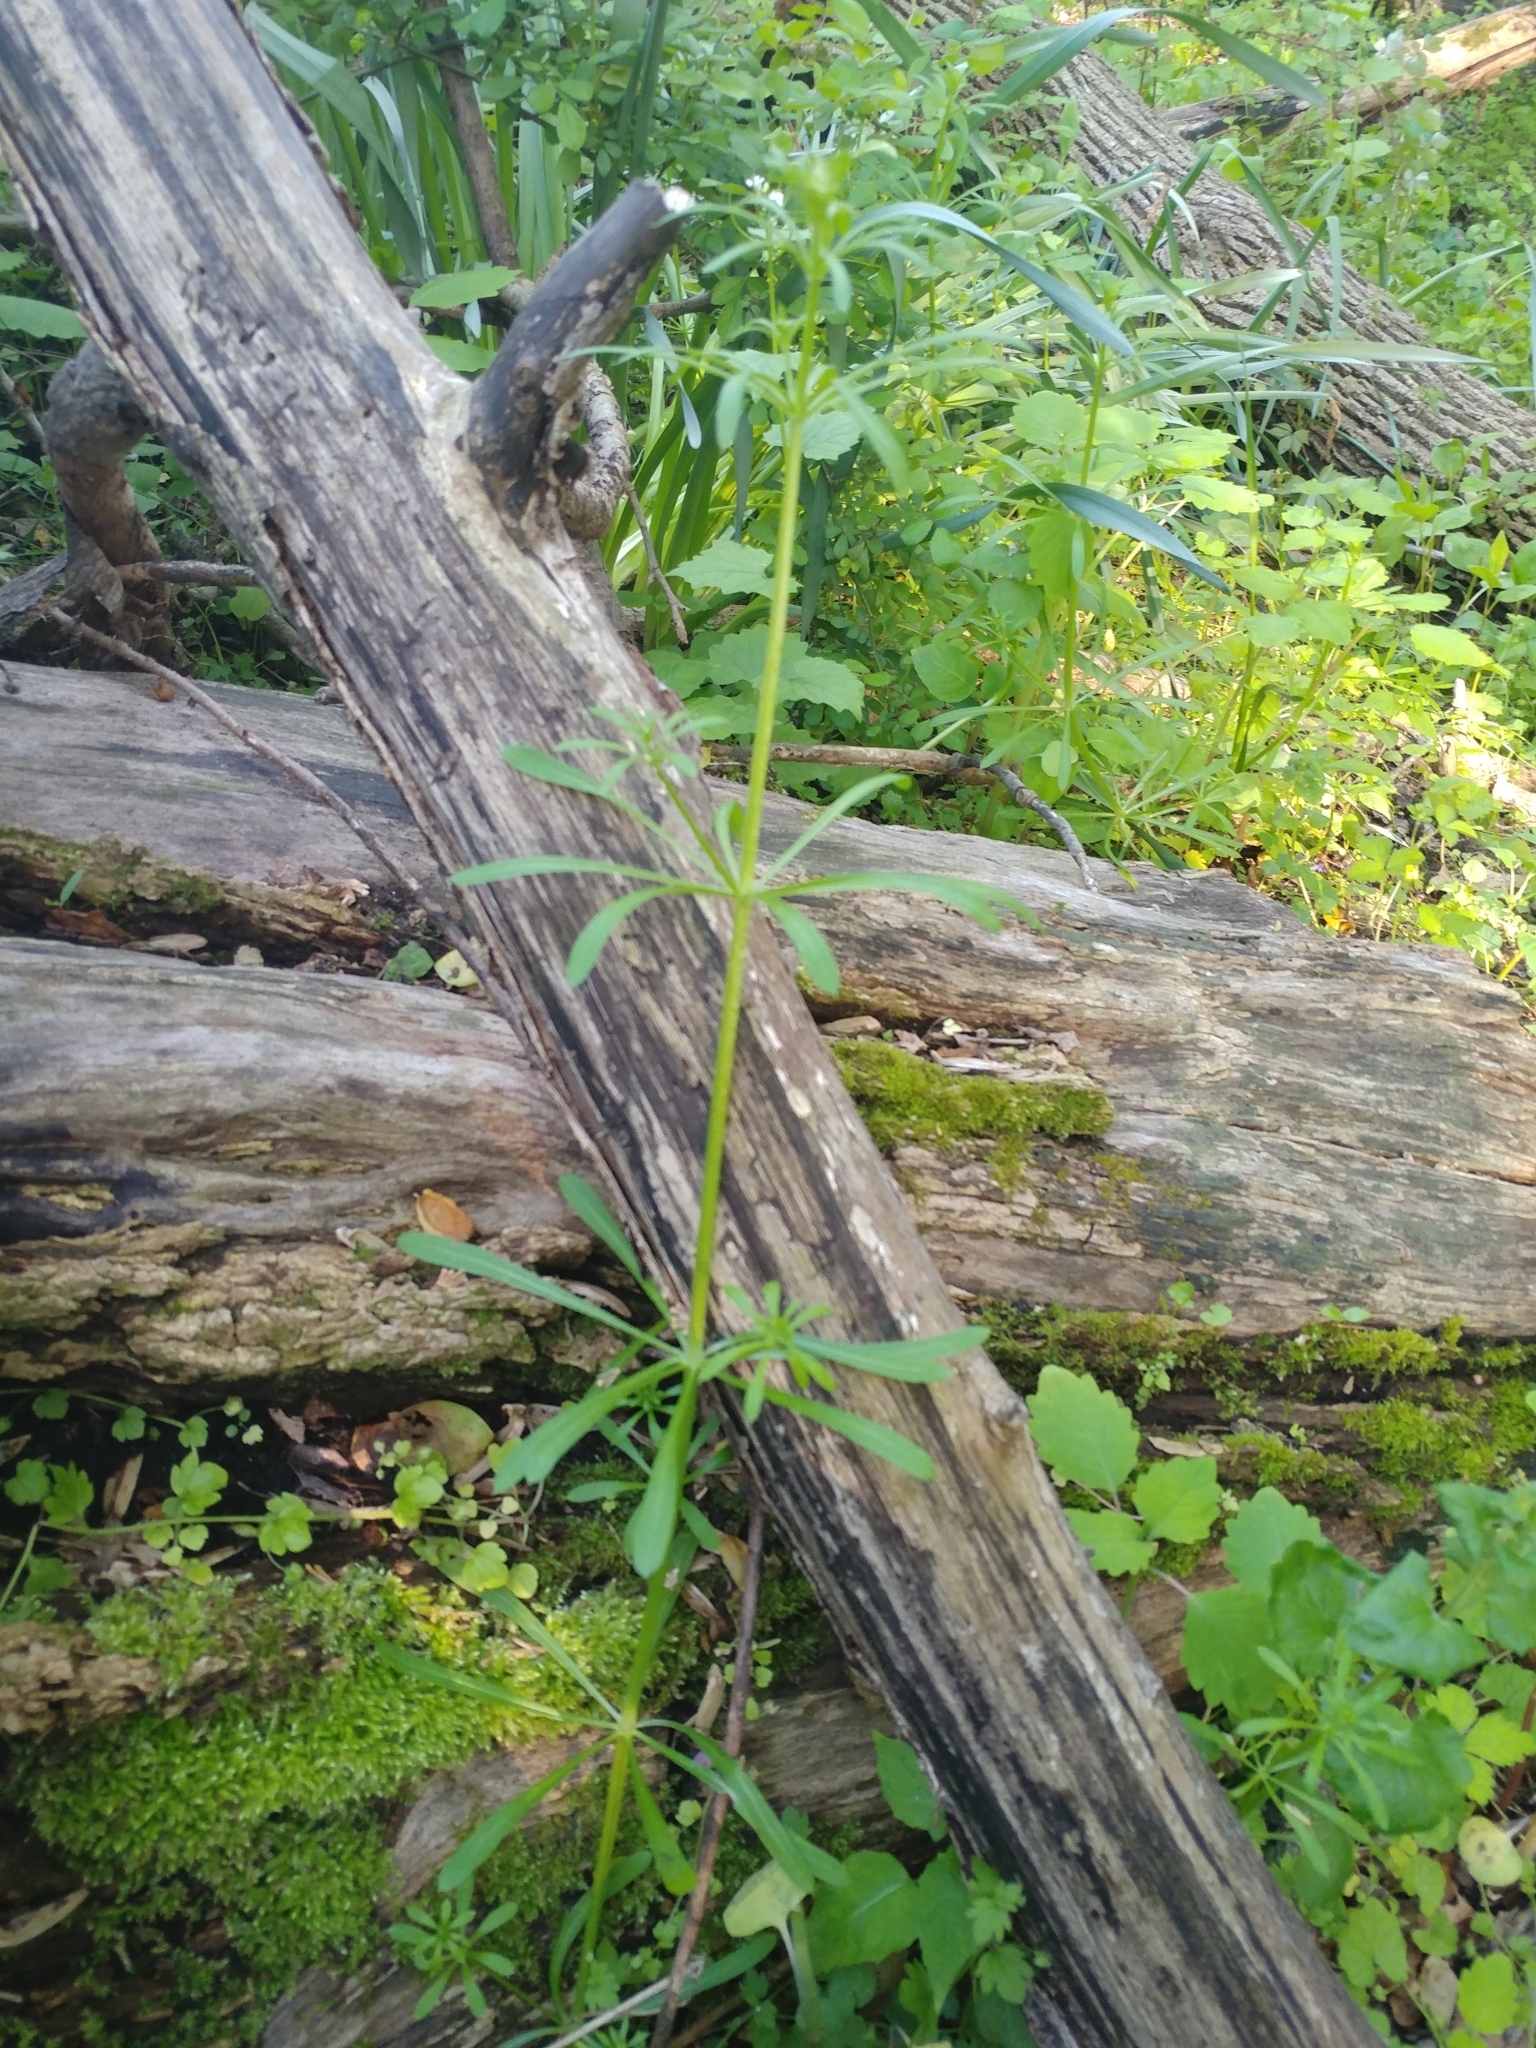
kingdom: Plantae
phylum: Tracheophyta
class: Magnoliopsida
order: Gentianales
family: Rubiaceae
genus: Galium
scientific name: Galium aparine
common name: Cleavers
